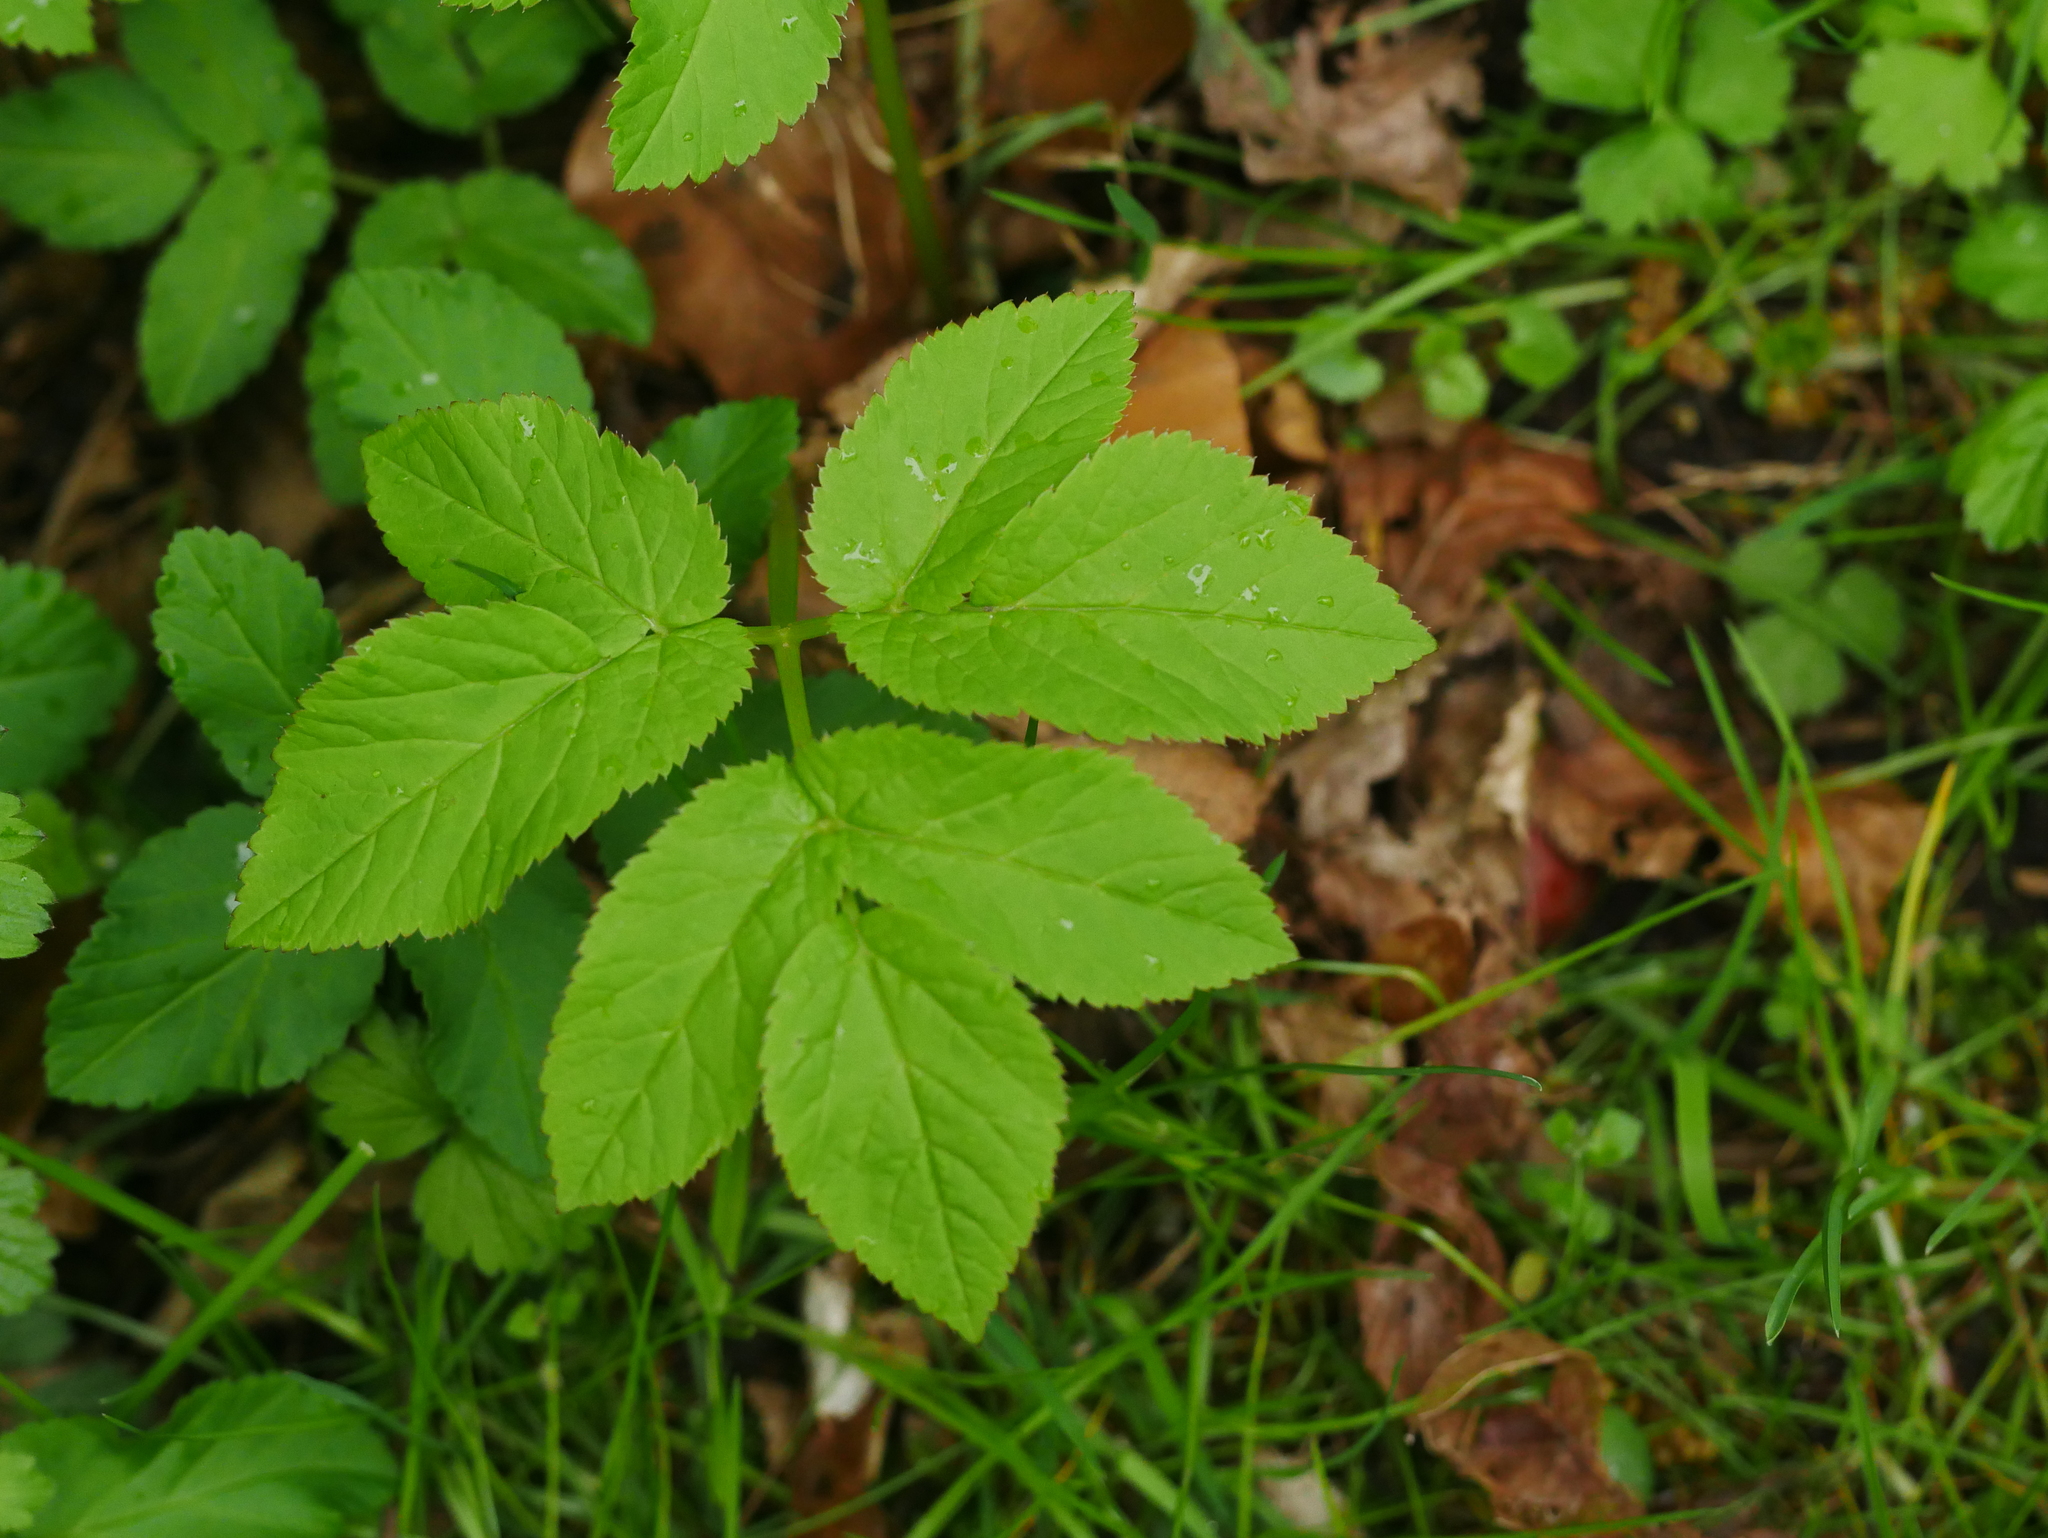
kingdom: Plantae
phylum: Tracheophyta
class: Magnoliopsida
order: Apiales
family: Apiaceae
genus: Aegopodium
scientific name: Aegopodium podagraria
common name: Ground-elder
